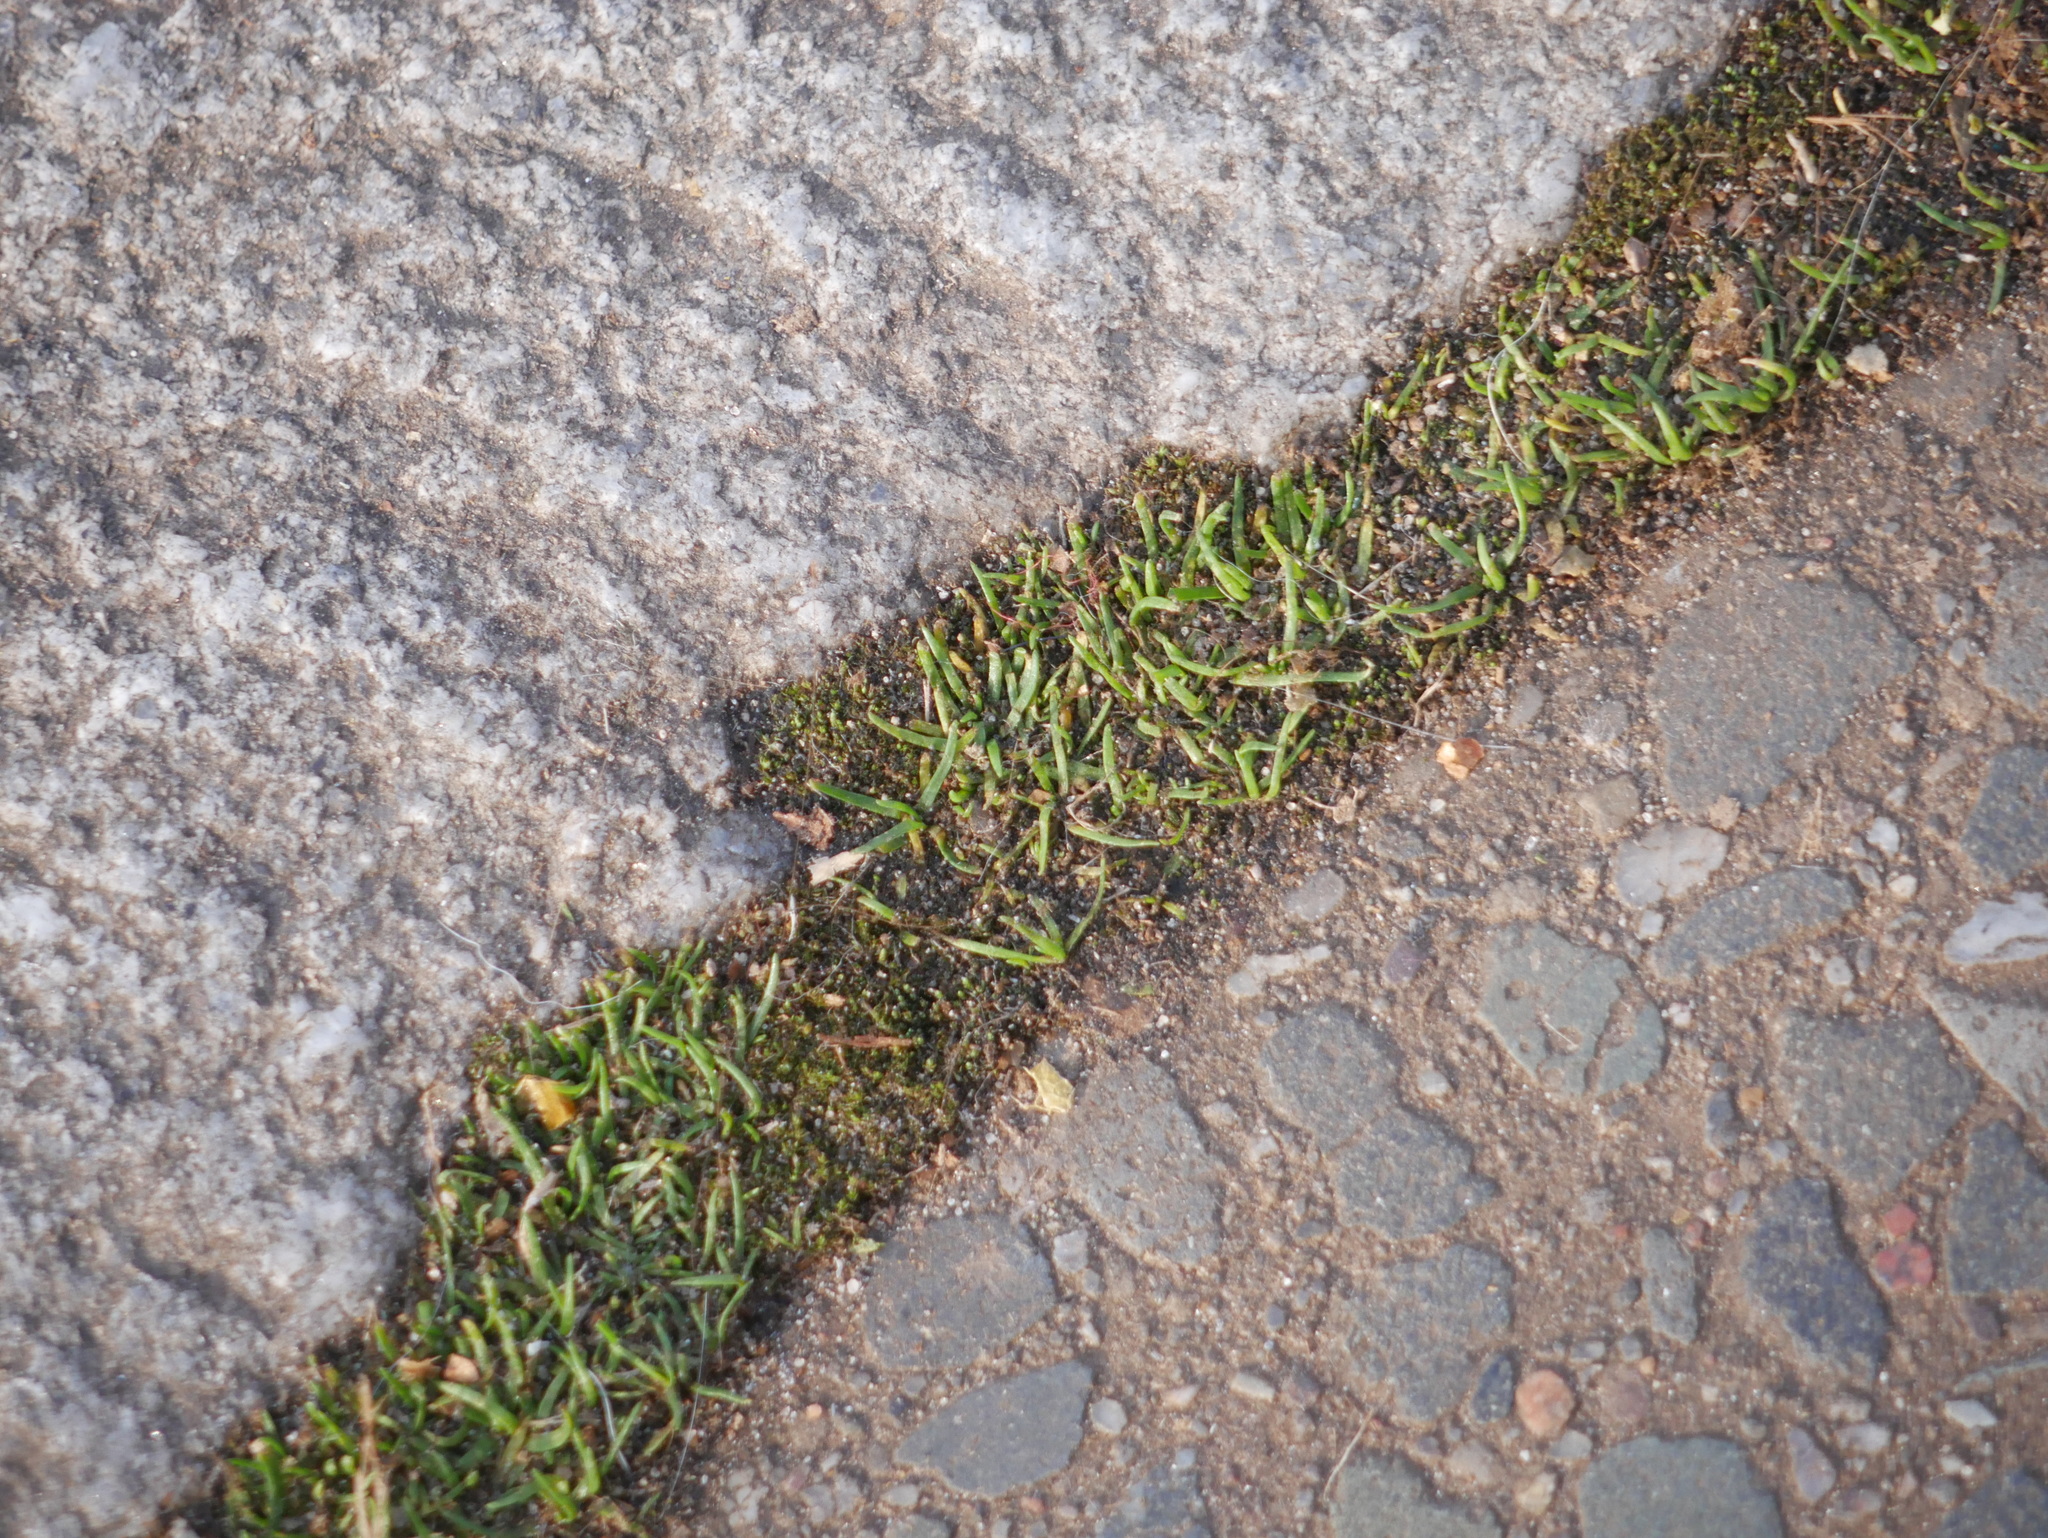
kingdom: Plantae
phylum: Tracheophyta
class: Magnoliopsida
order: Caryophyllales
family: Caryophyllaceae
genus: Sagina
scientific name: Sagina procumbens
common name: Procumbent pearlwort
